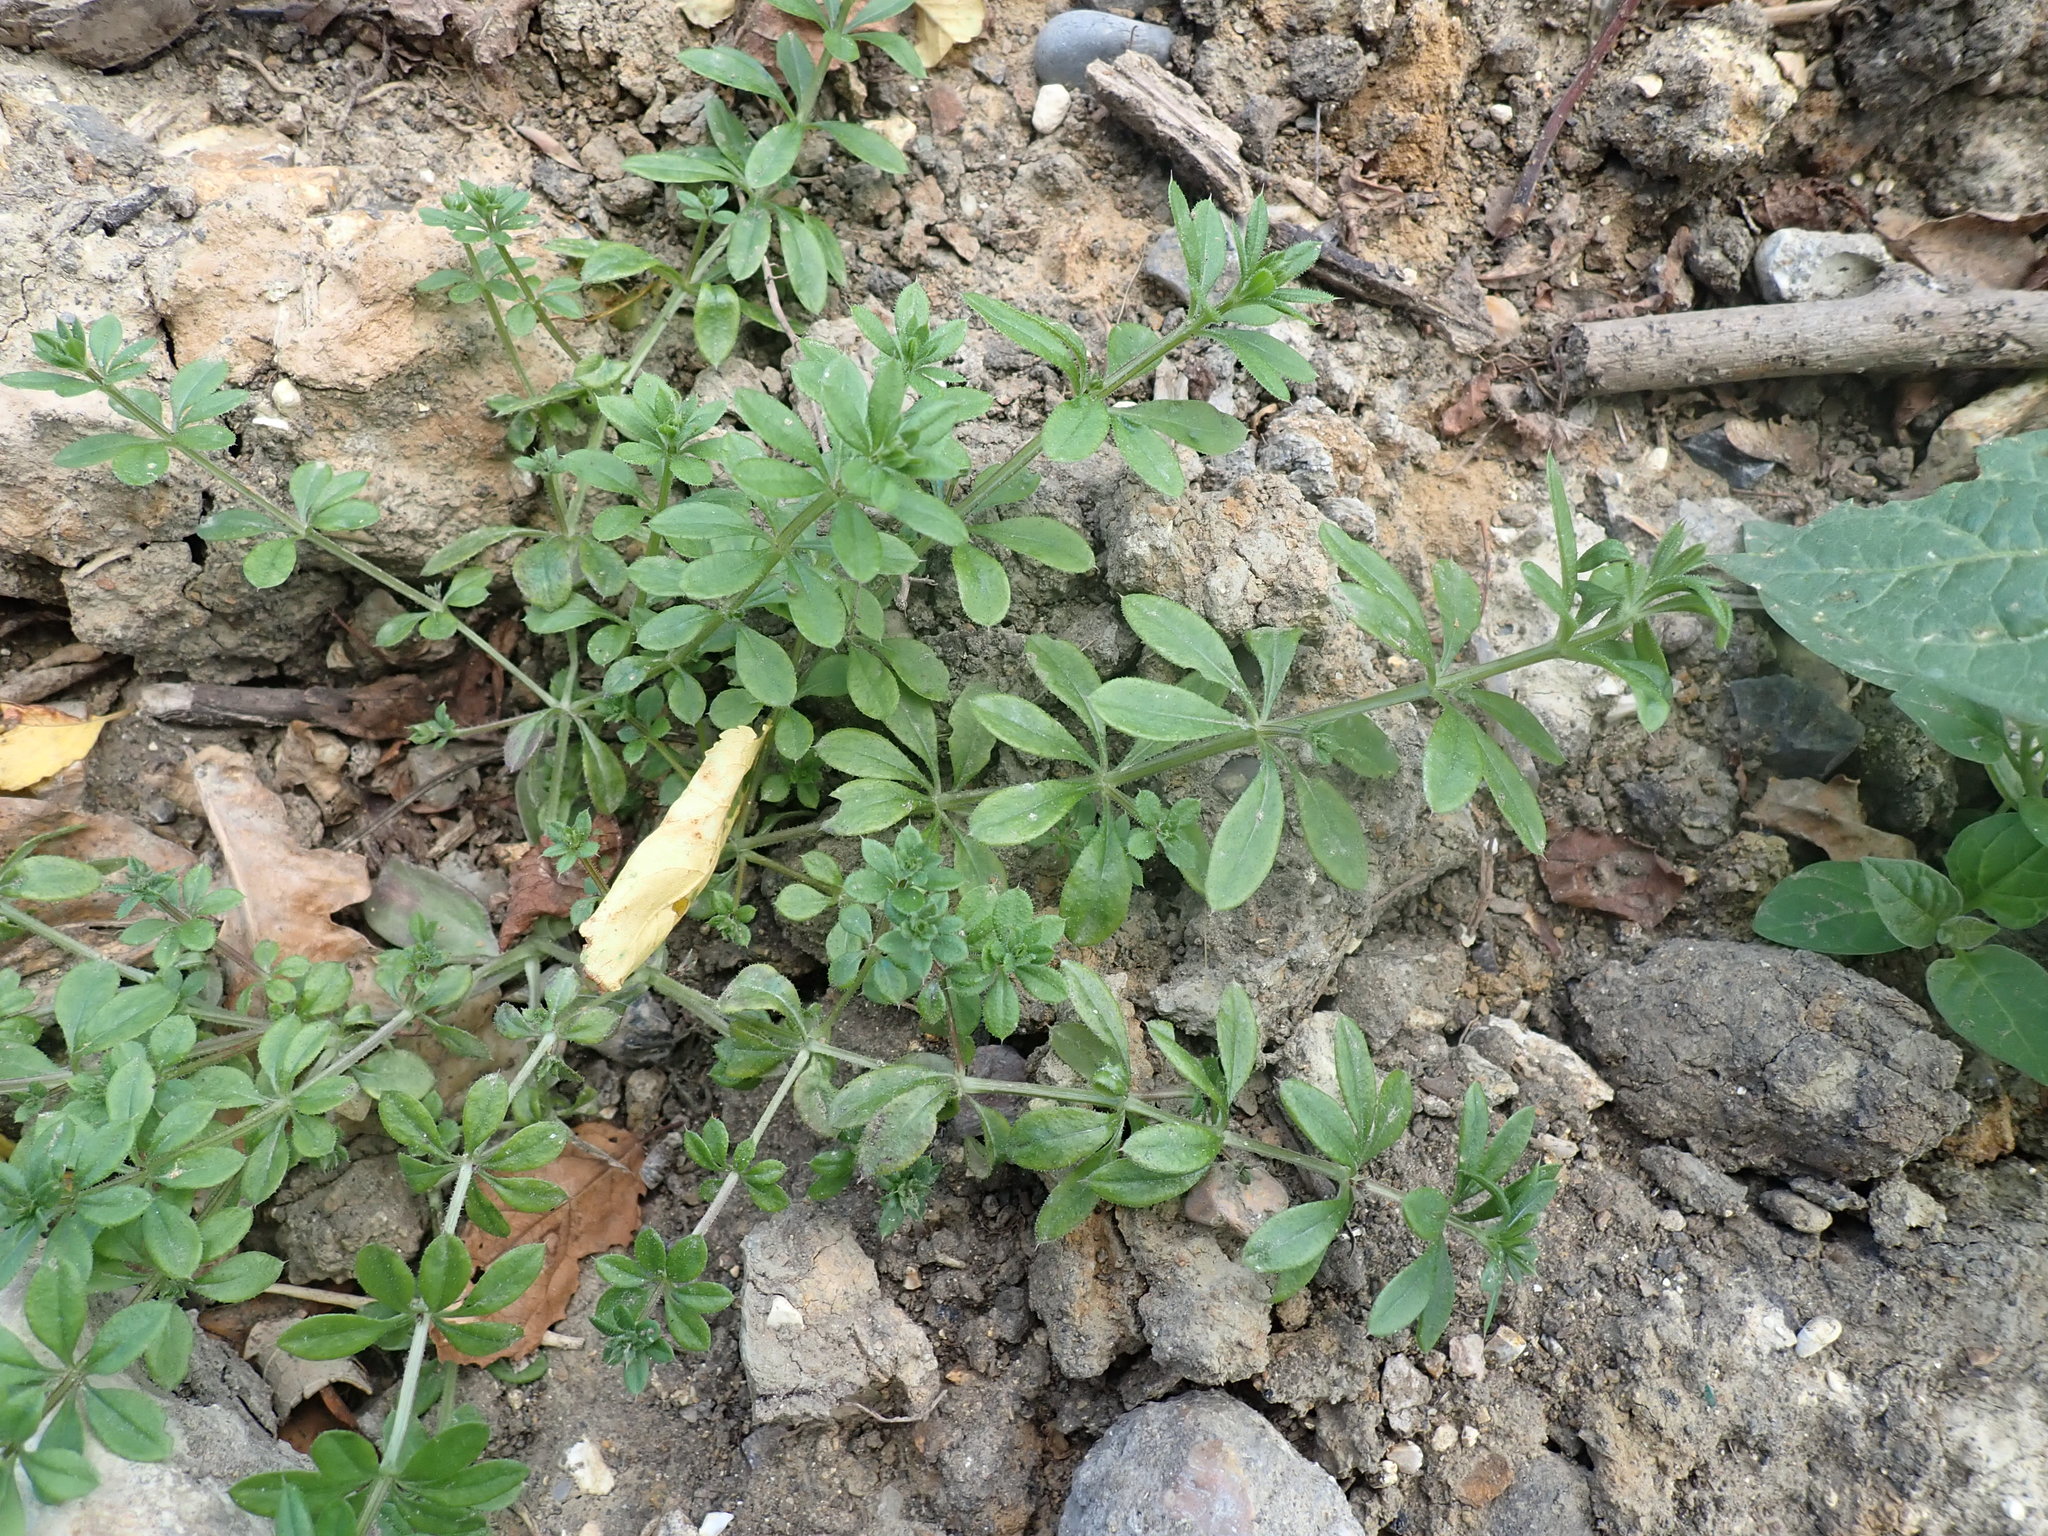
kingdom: Plantae
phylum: Tracheophyta
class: Magnoliopsida
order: Gentianales
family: Rubiaceae
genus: Galium
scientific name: Galium aparine
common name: Cleavers
